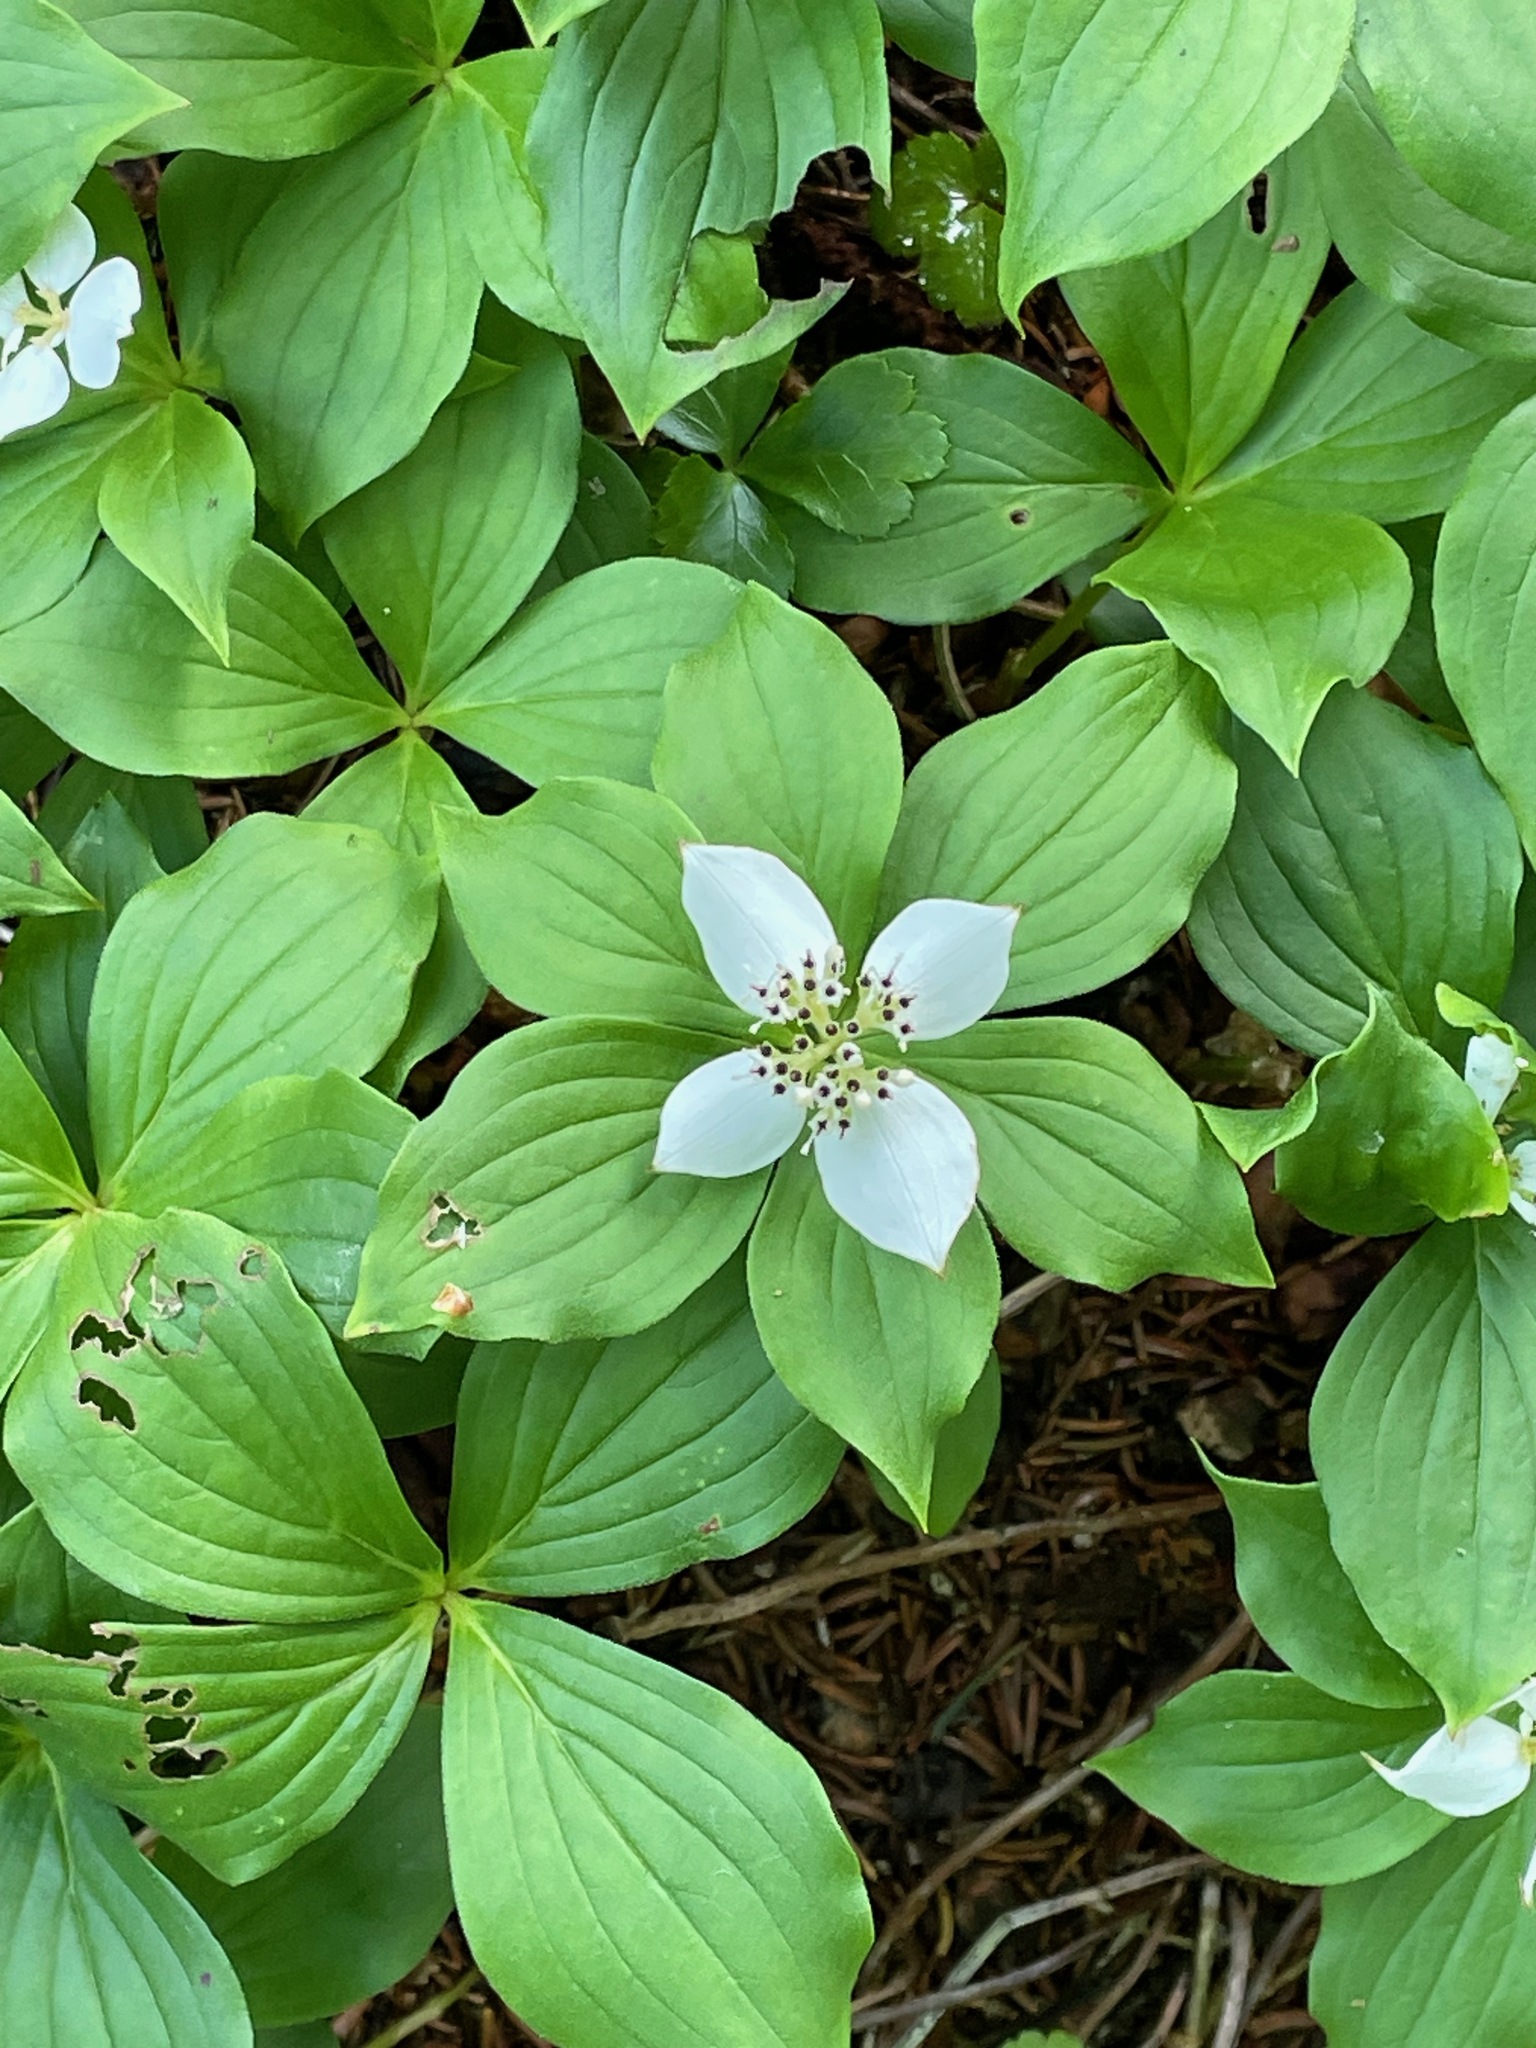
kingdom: Plantae
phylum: Tracheophyta
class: Magnoliopsida
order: Cornales
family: Cornaceae
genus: Cornus
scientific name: Cornus canadensis
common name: Creeping dogwood
